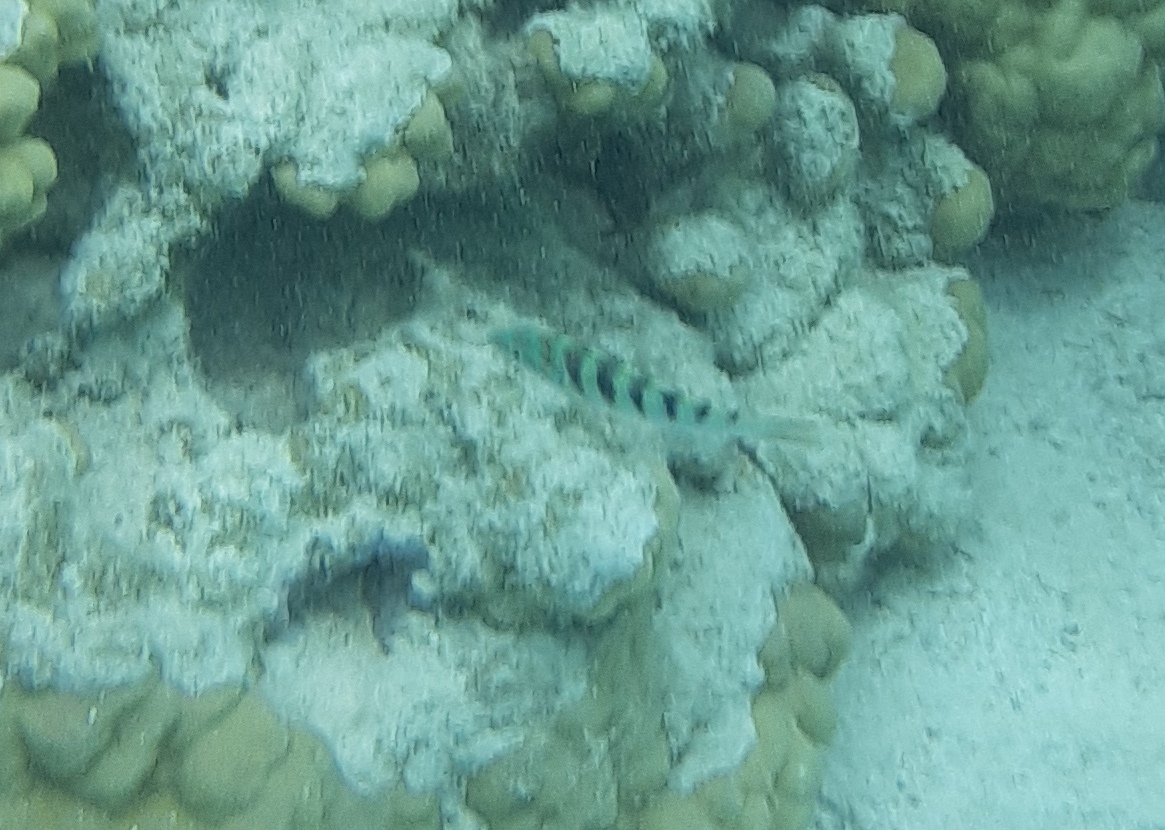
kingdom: Animalia
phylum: Chordata
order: Perciformes
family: Labridae
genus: Thalassoma
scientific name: Thalassoma hardwicke
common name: Sixbar wrasse
